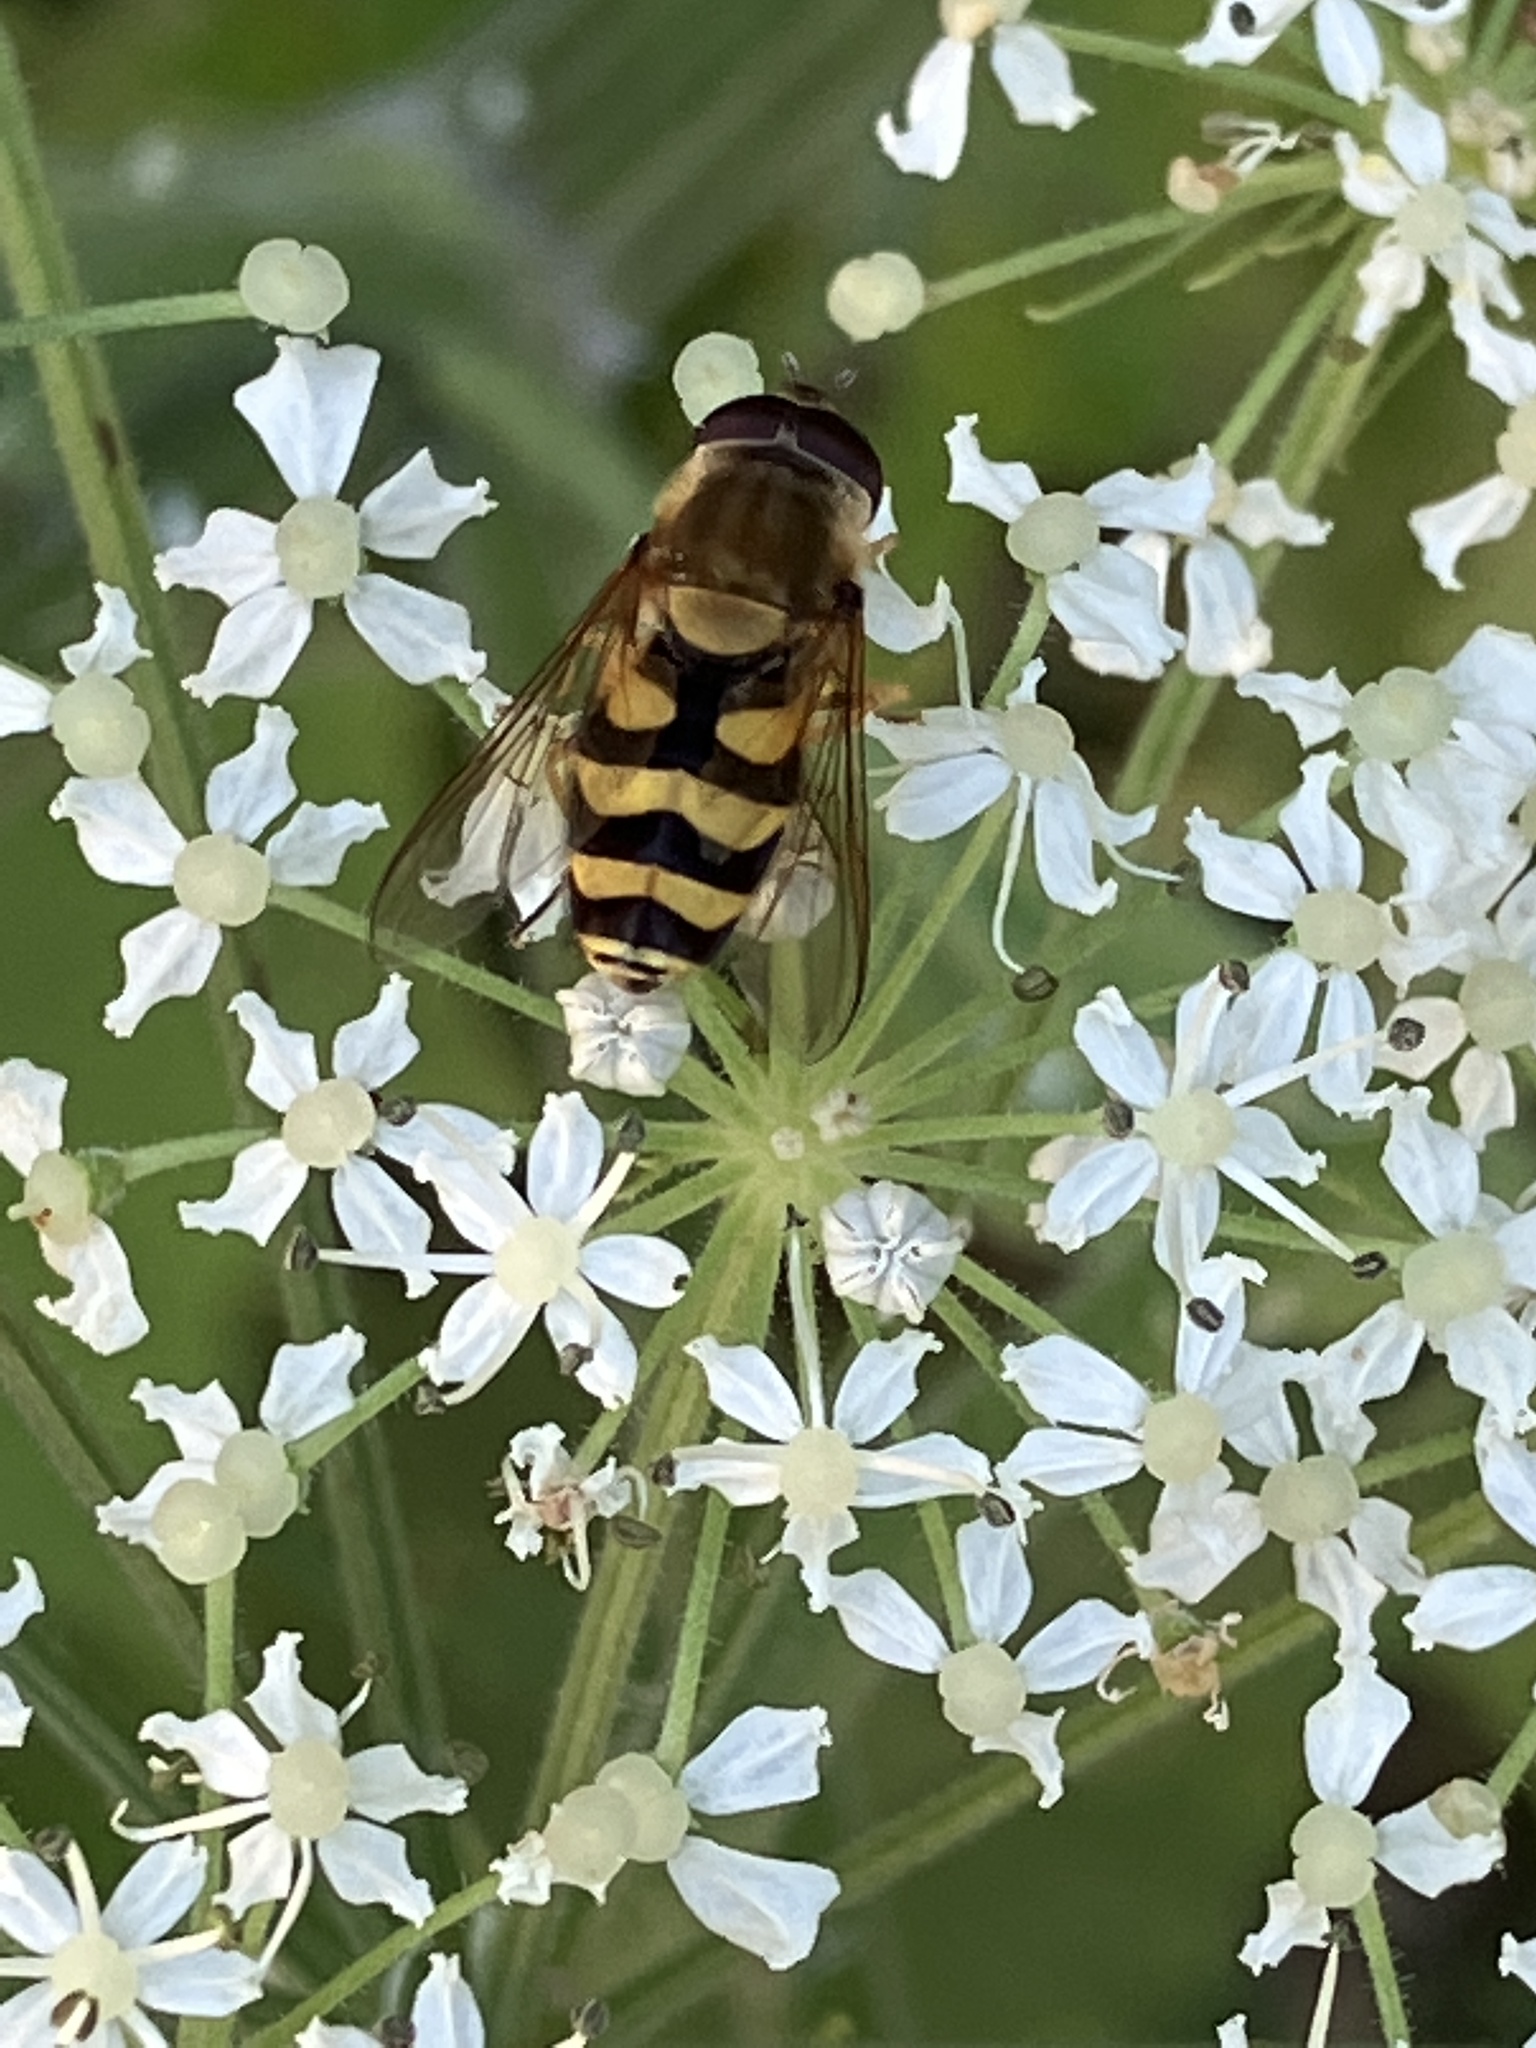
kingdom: Animalia
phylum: Arthropoda
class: Insecta
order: Diptera
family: Syrphidae
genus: Syrphus
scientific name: Syrphus
